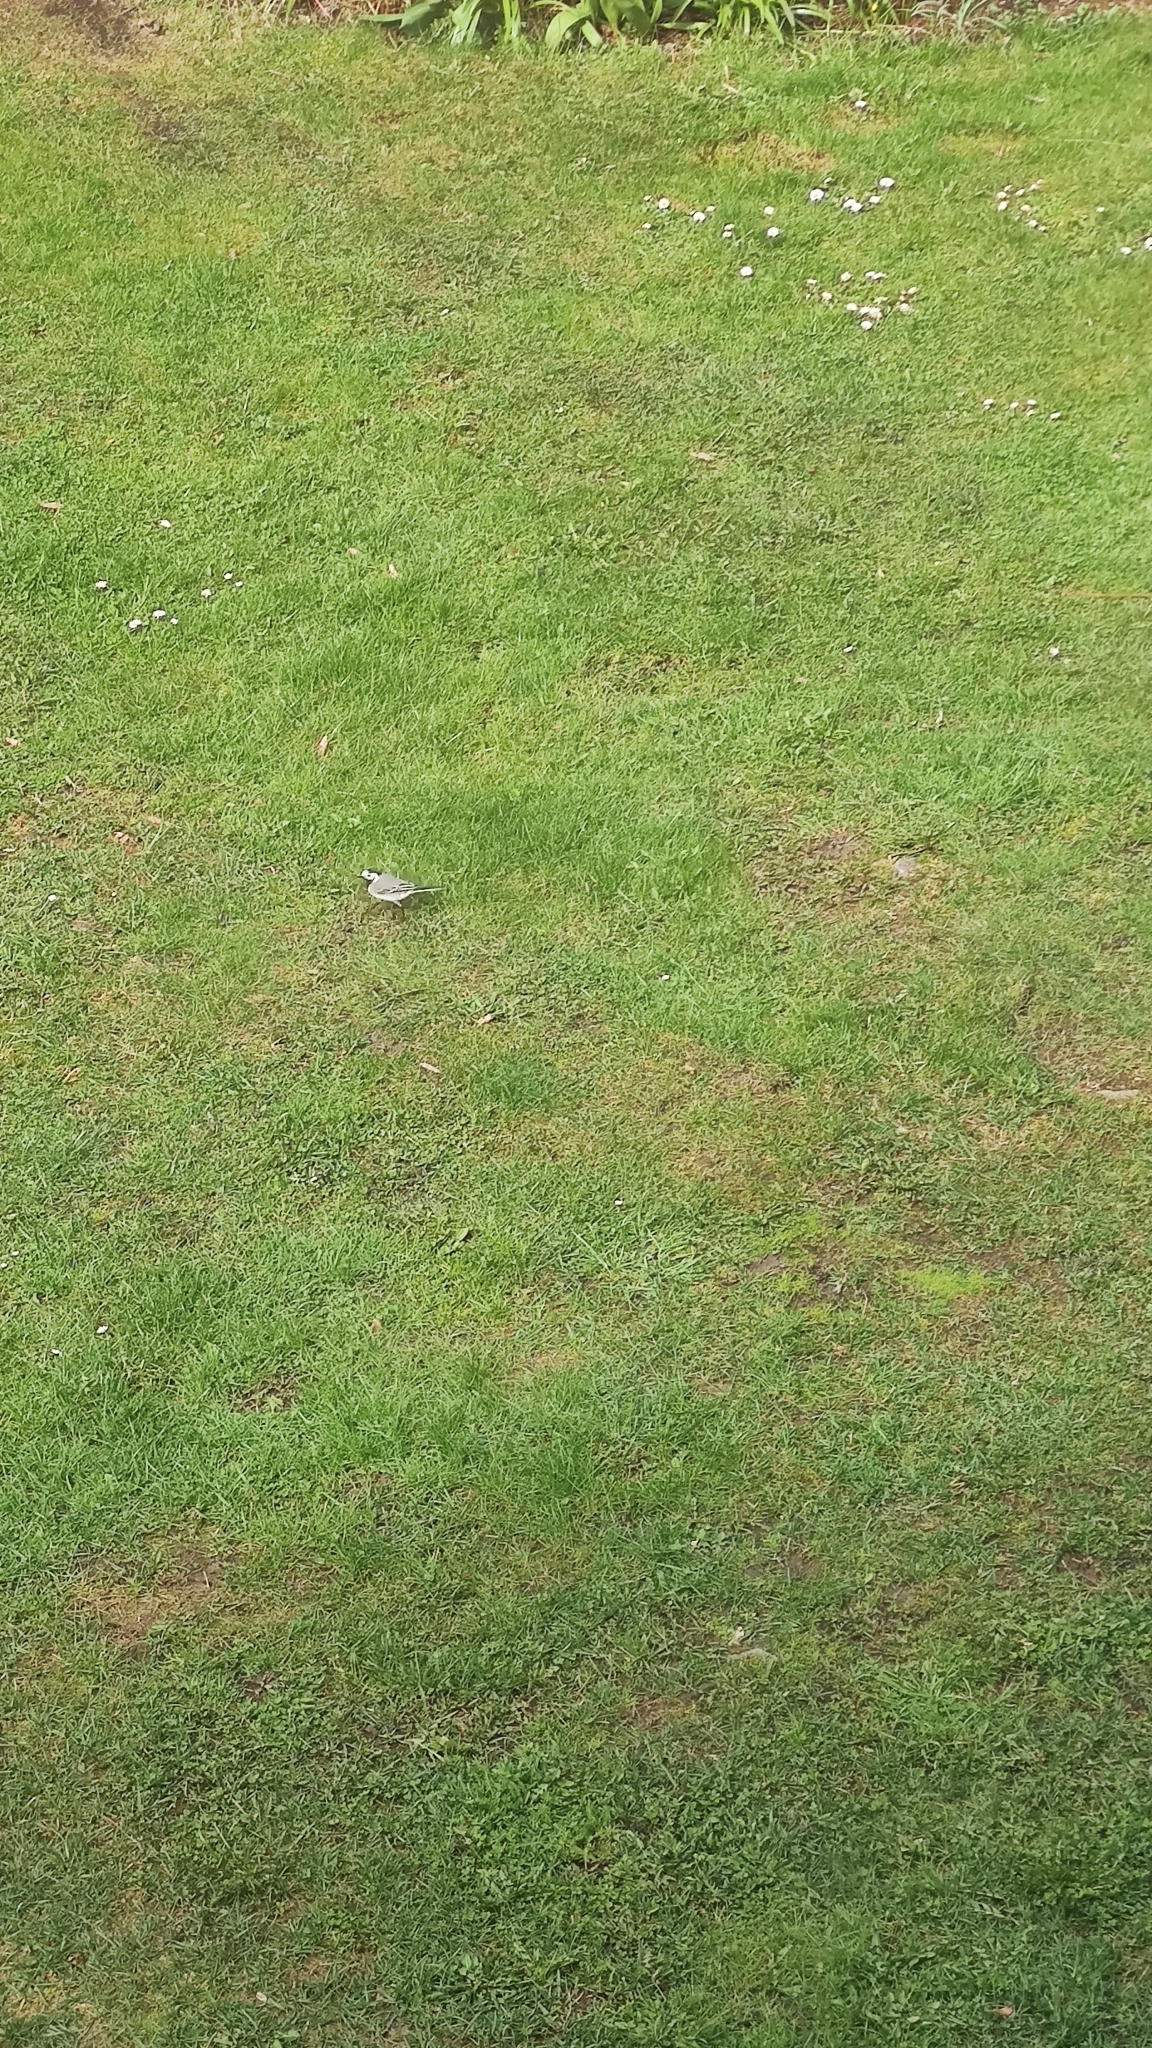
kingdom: Animalia
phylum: Chordata
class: Aves
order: Passeriformes
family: Motacillidae
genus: Motacilla
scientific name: Motacilla alba
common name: White wagtail
